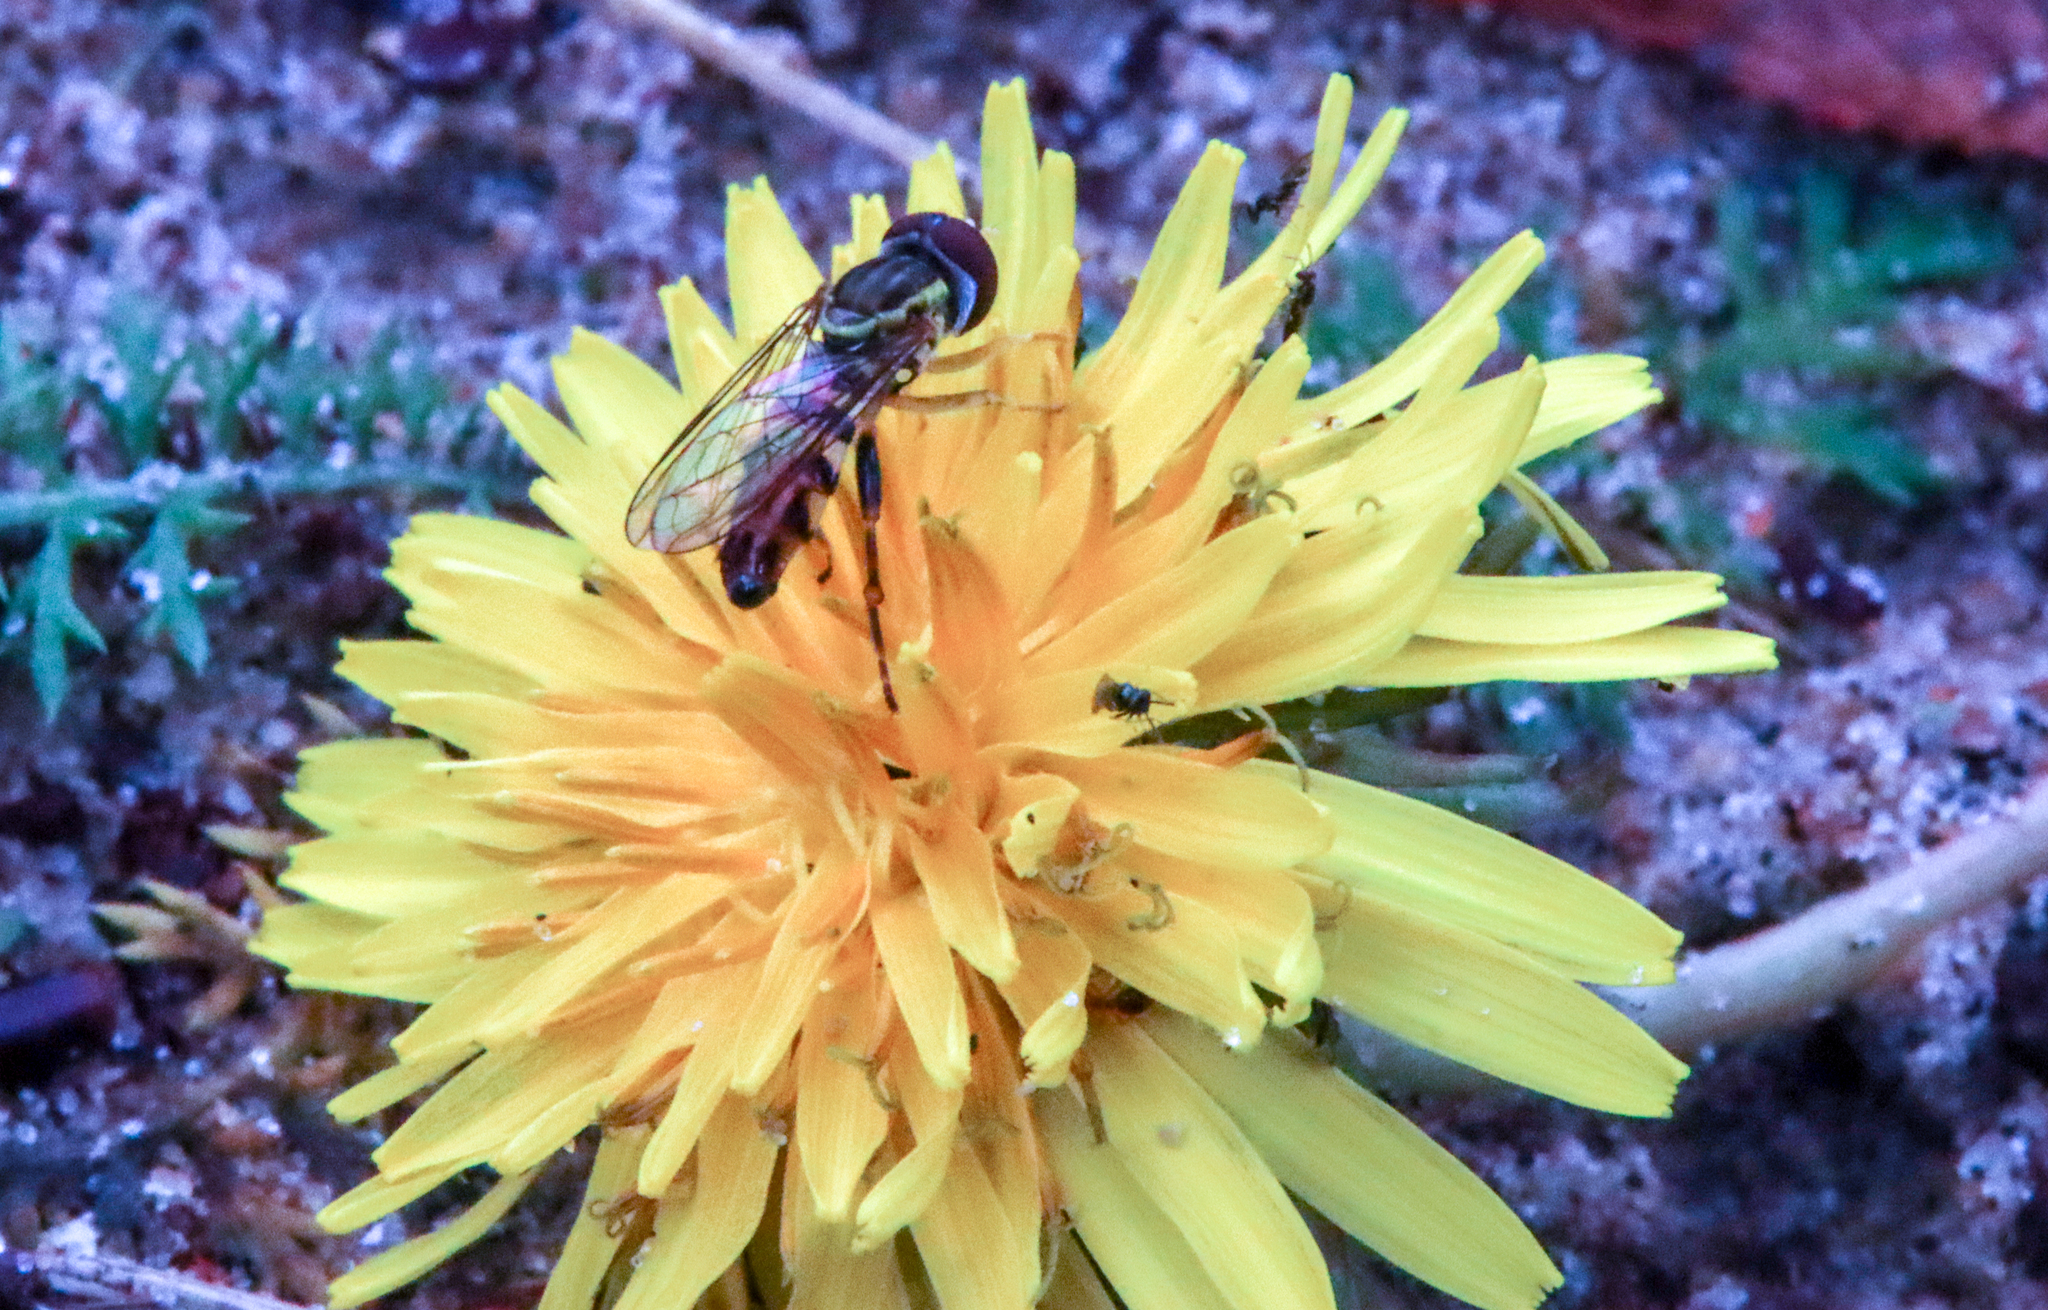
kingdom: Animalia
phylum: Arthropoda
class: Insecta
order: Diptera
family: Syrphidae
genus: Toxomerus
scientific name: Toxomerus geminatus
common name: Eastern calligrapher
